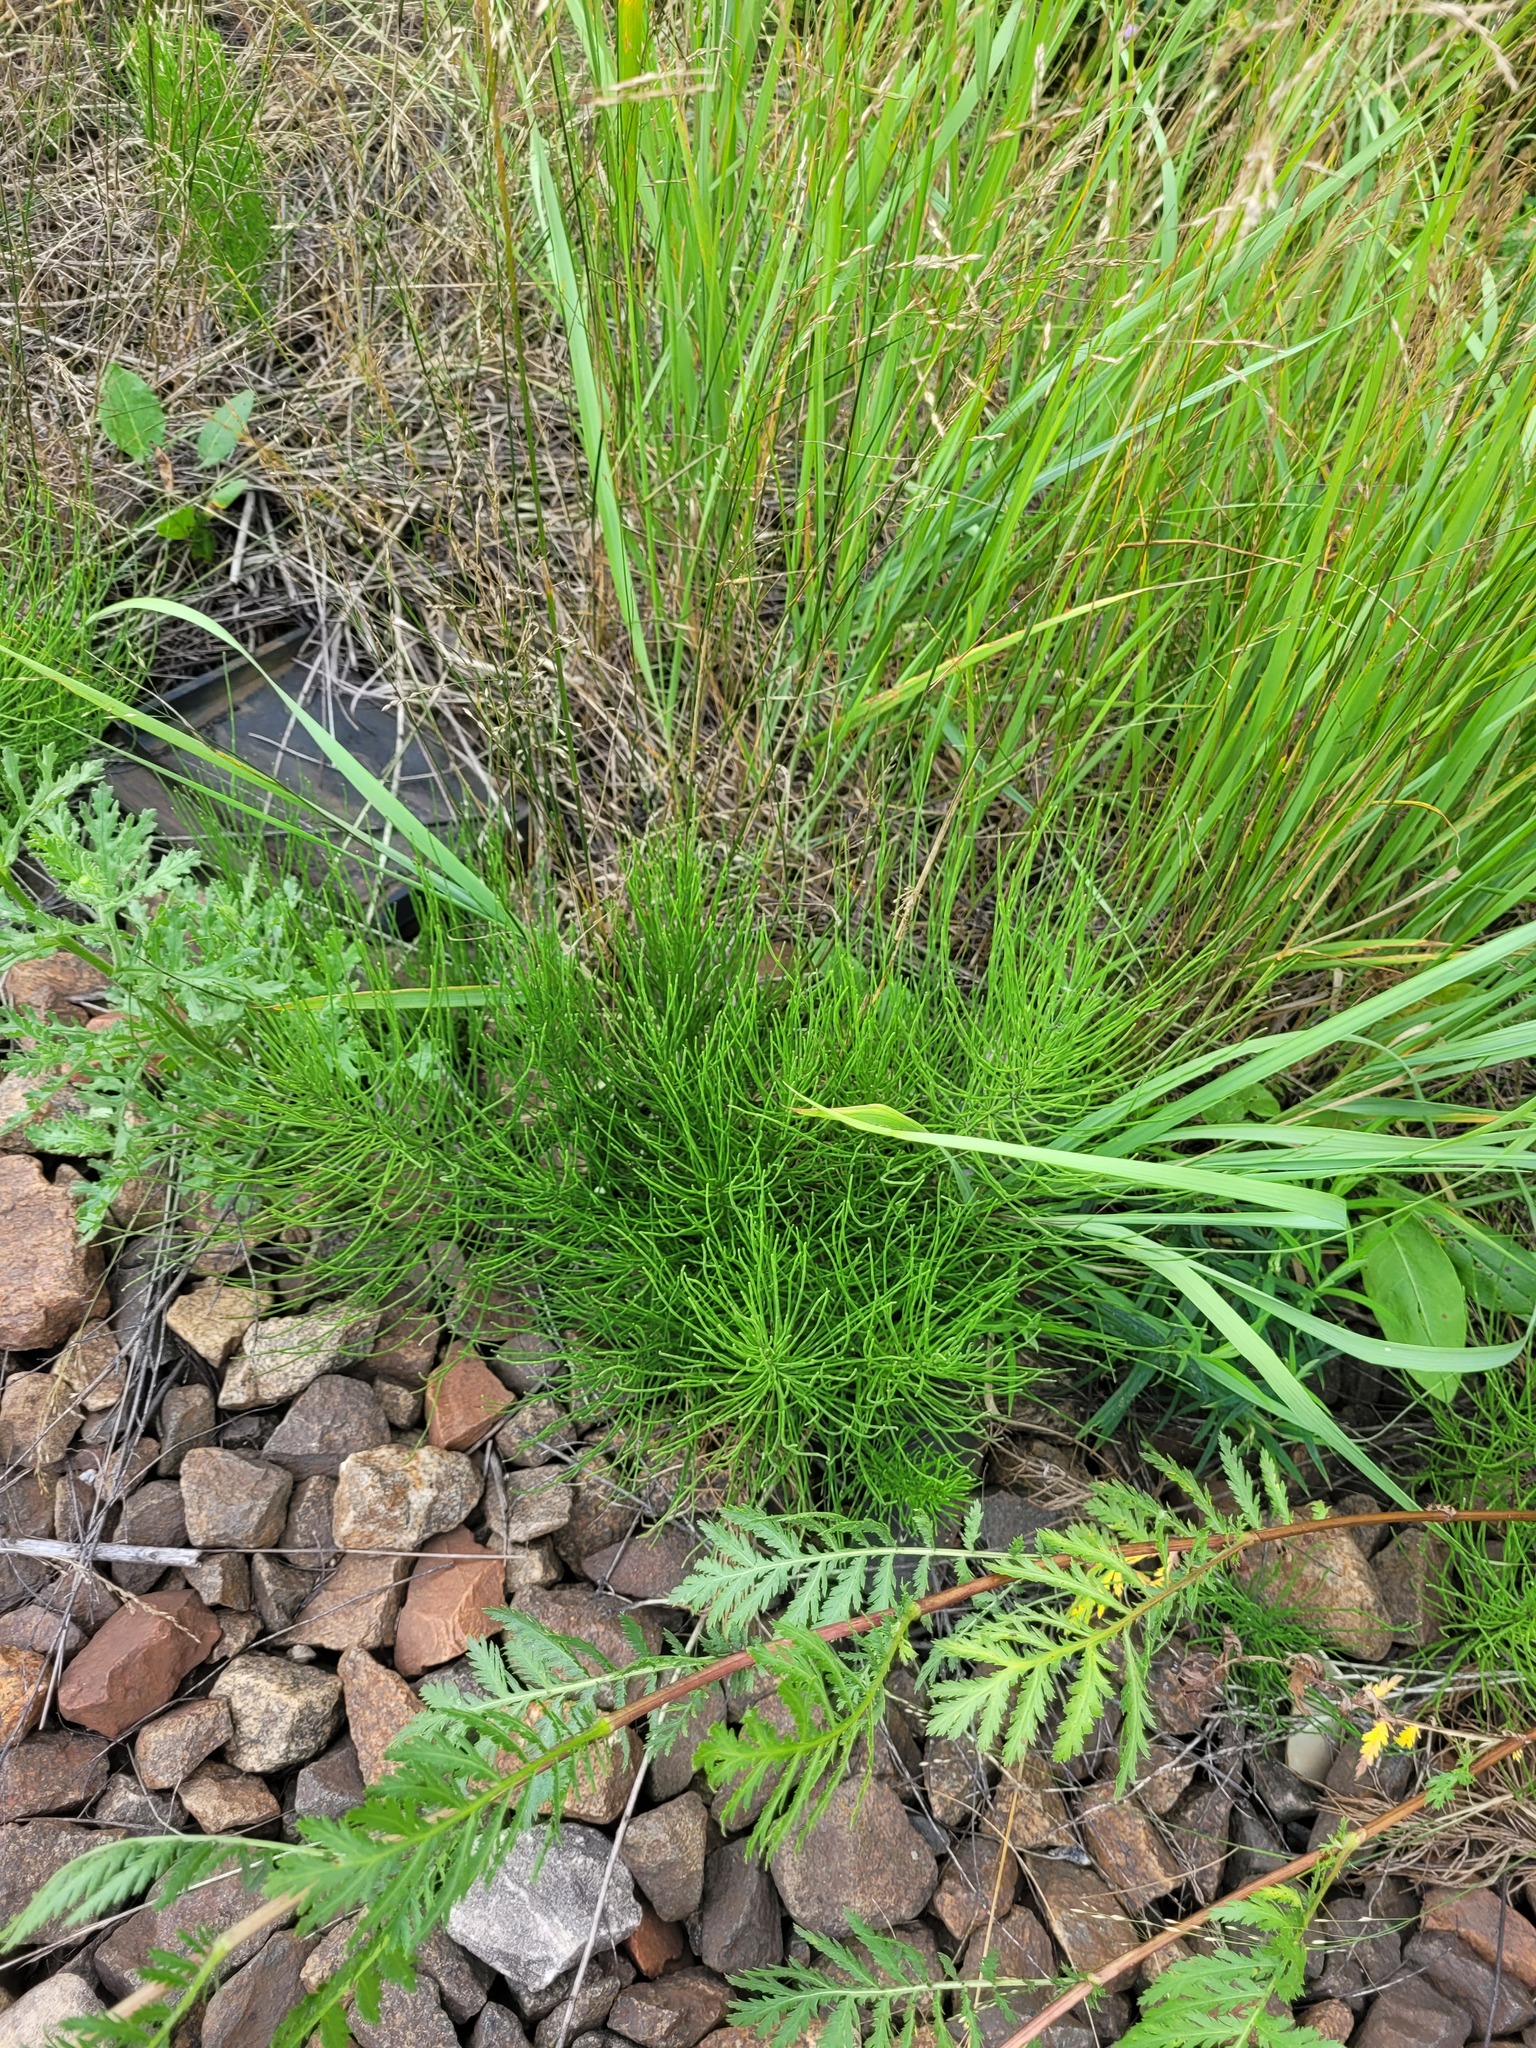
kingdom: Plantae
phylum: Tracheophyta
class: Polypodiopsida
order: Equisetales
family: Equisetaceae
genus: Equisetum
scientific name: Equisetum arvense
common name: Field horsetail
